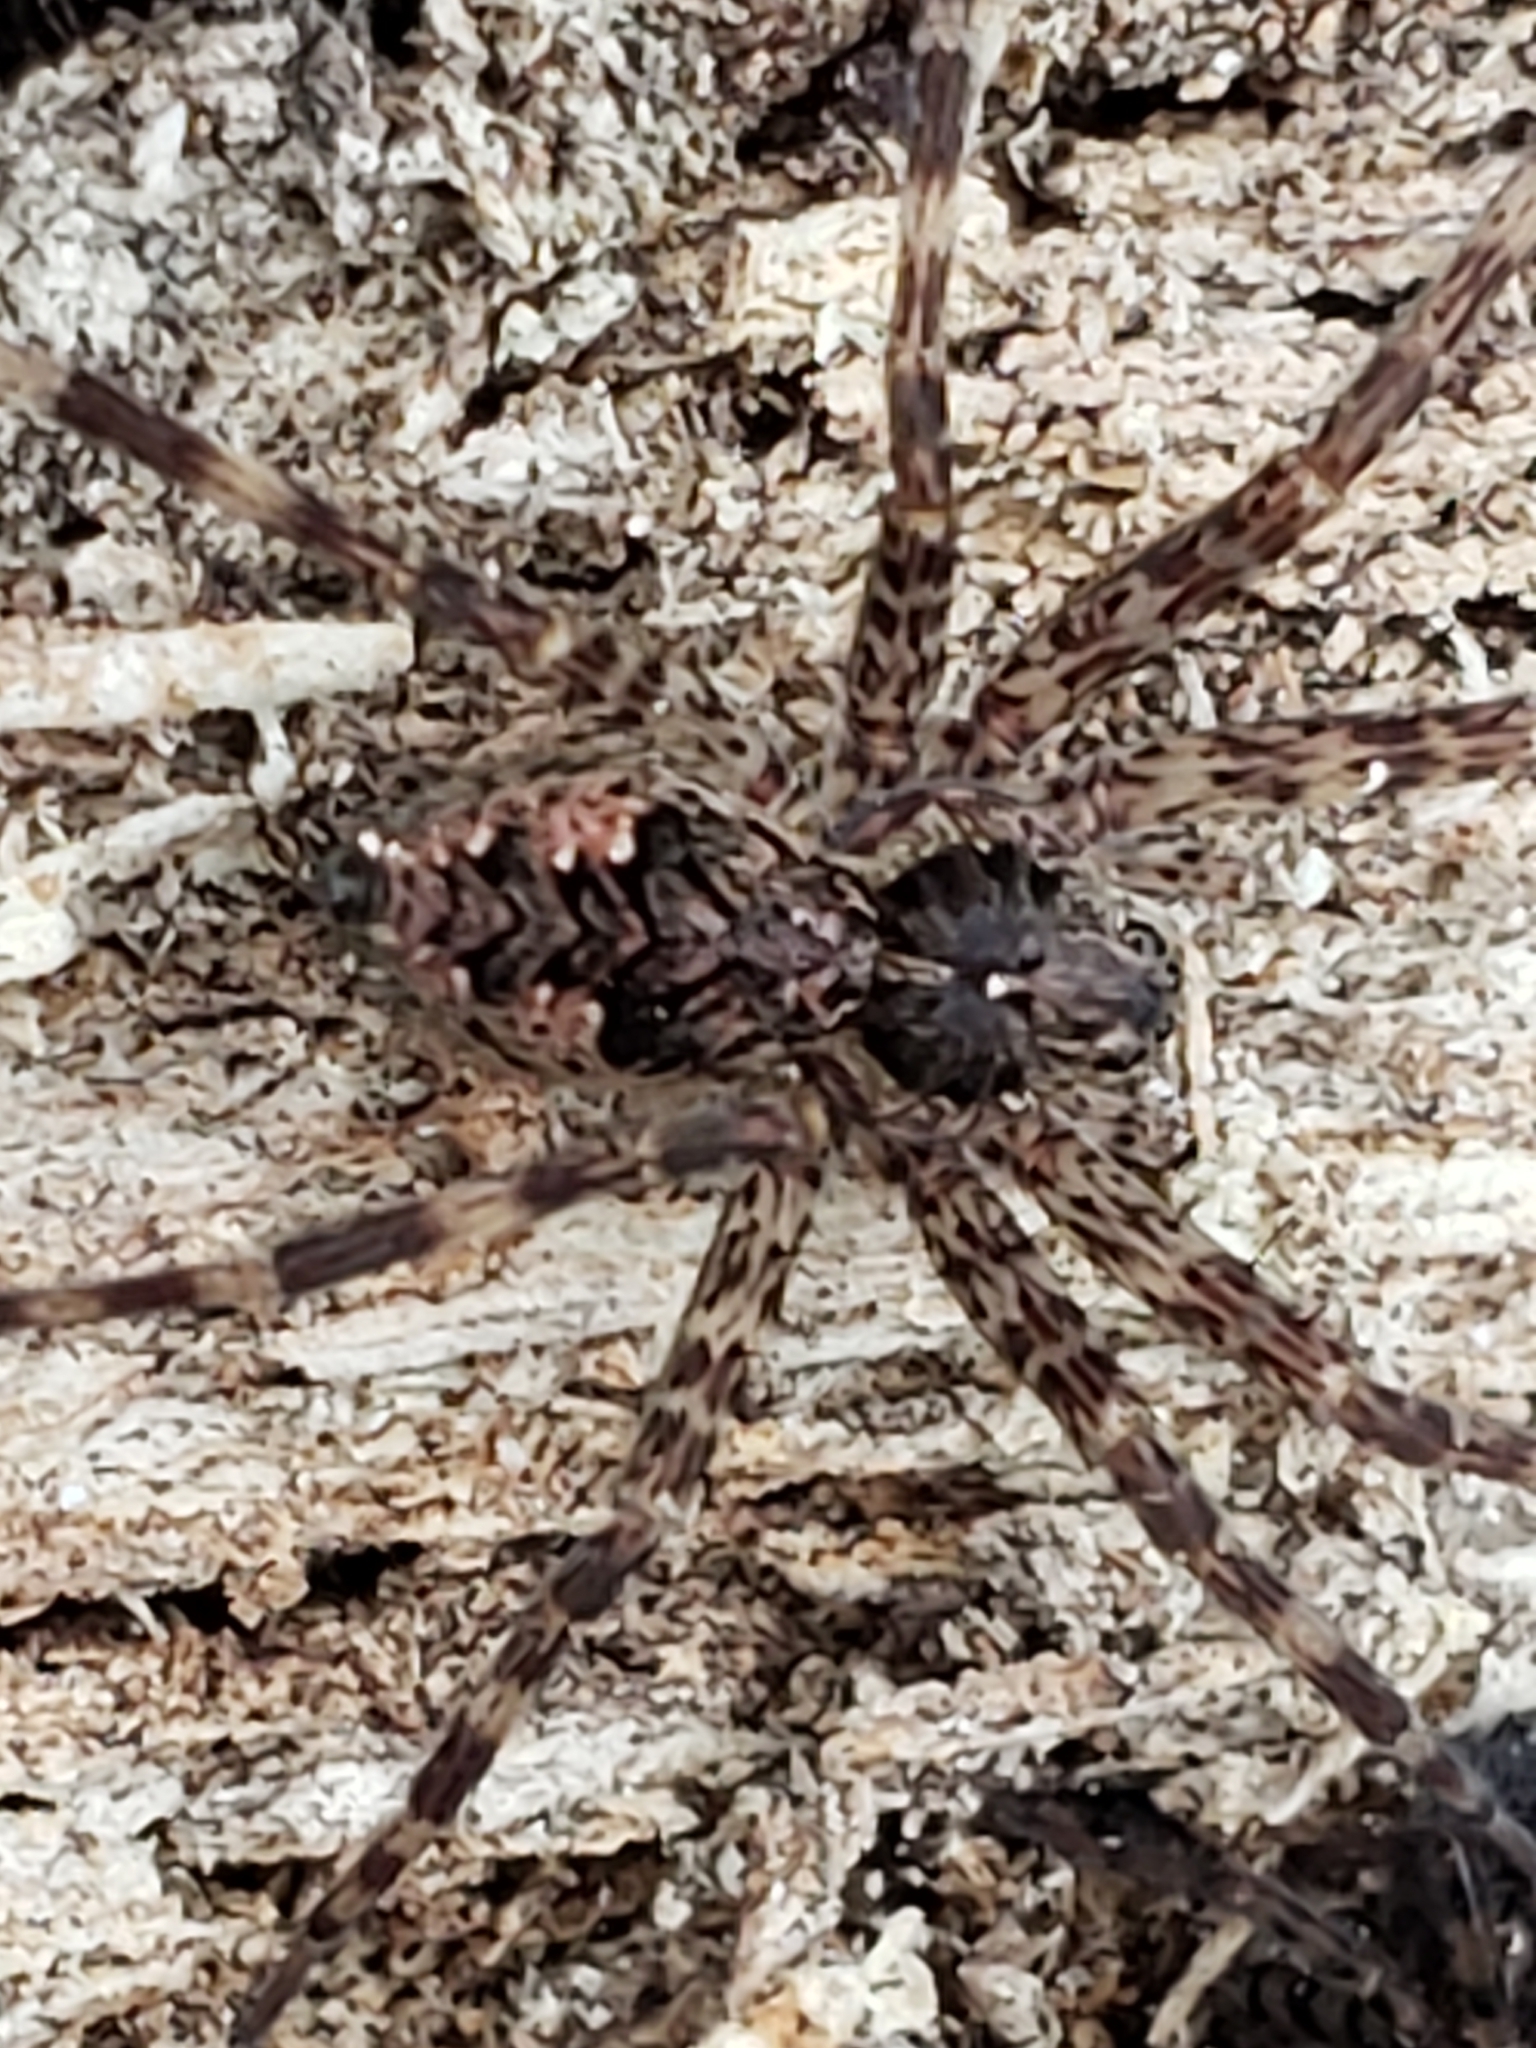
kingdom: Animalia
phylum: Arthropoda
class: Arachnida
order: Araneae
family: Pisauridae
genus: Dolomedes
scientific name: Dolomedes tenebrosus
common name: Dark fishing spider
